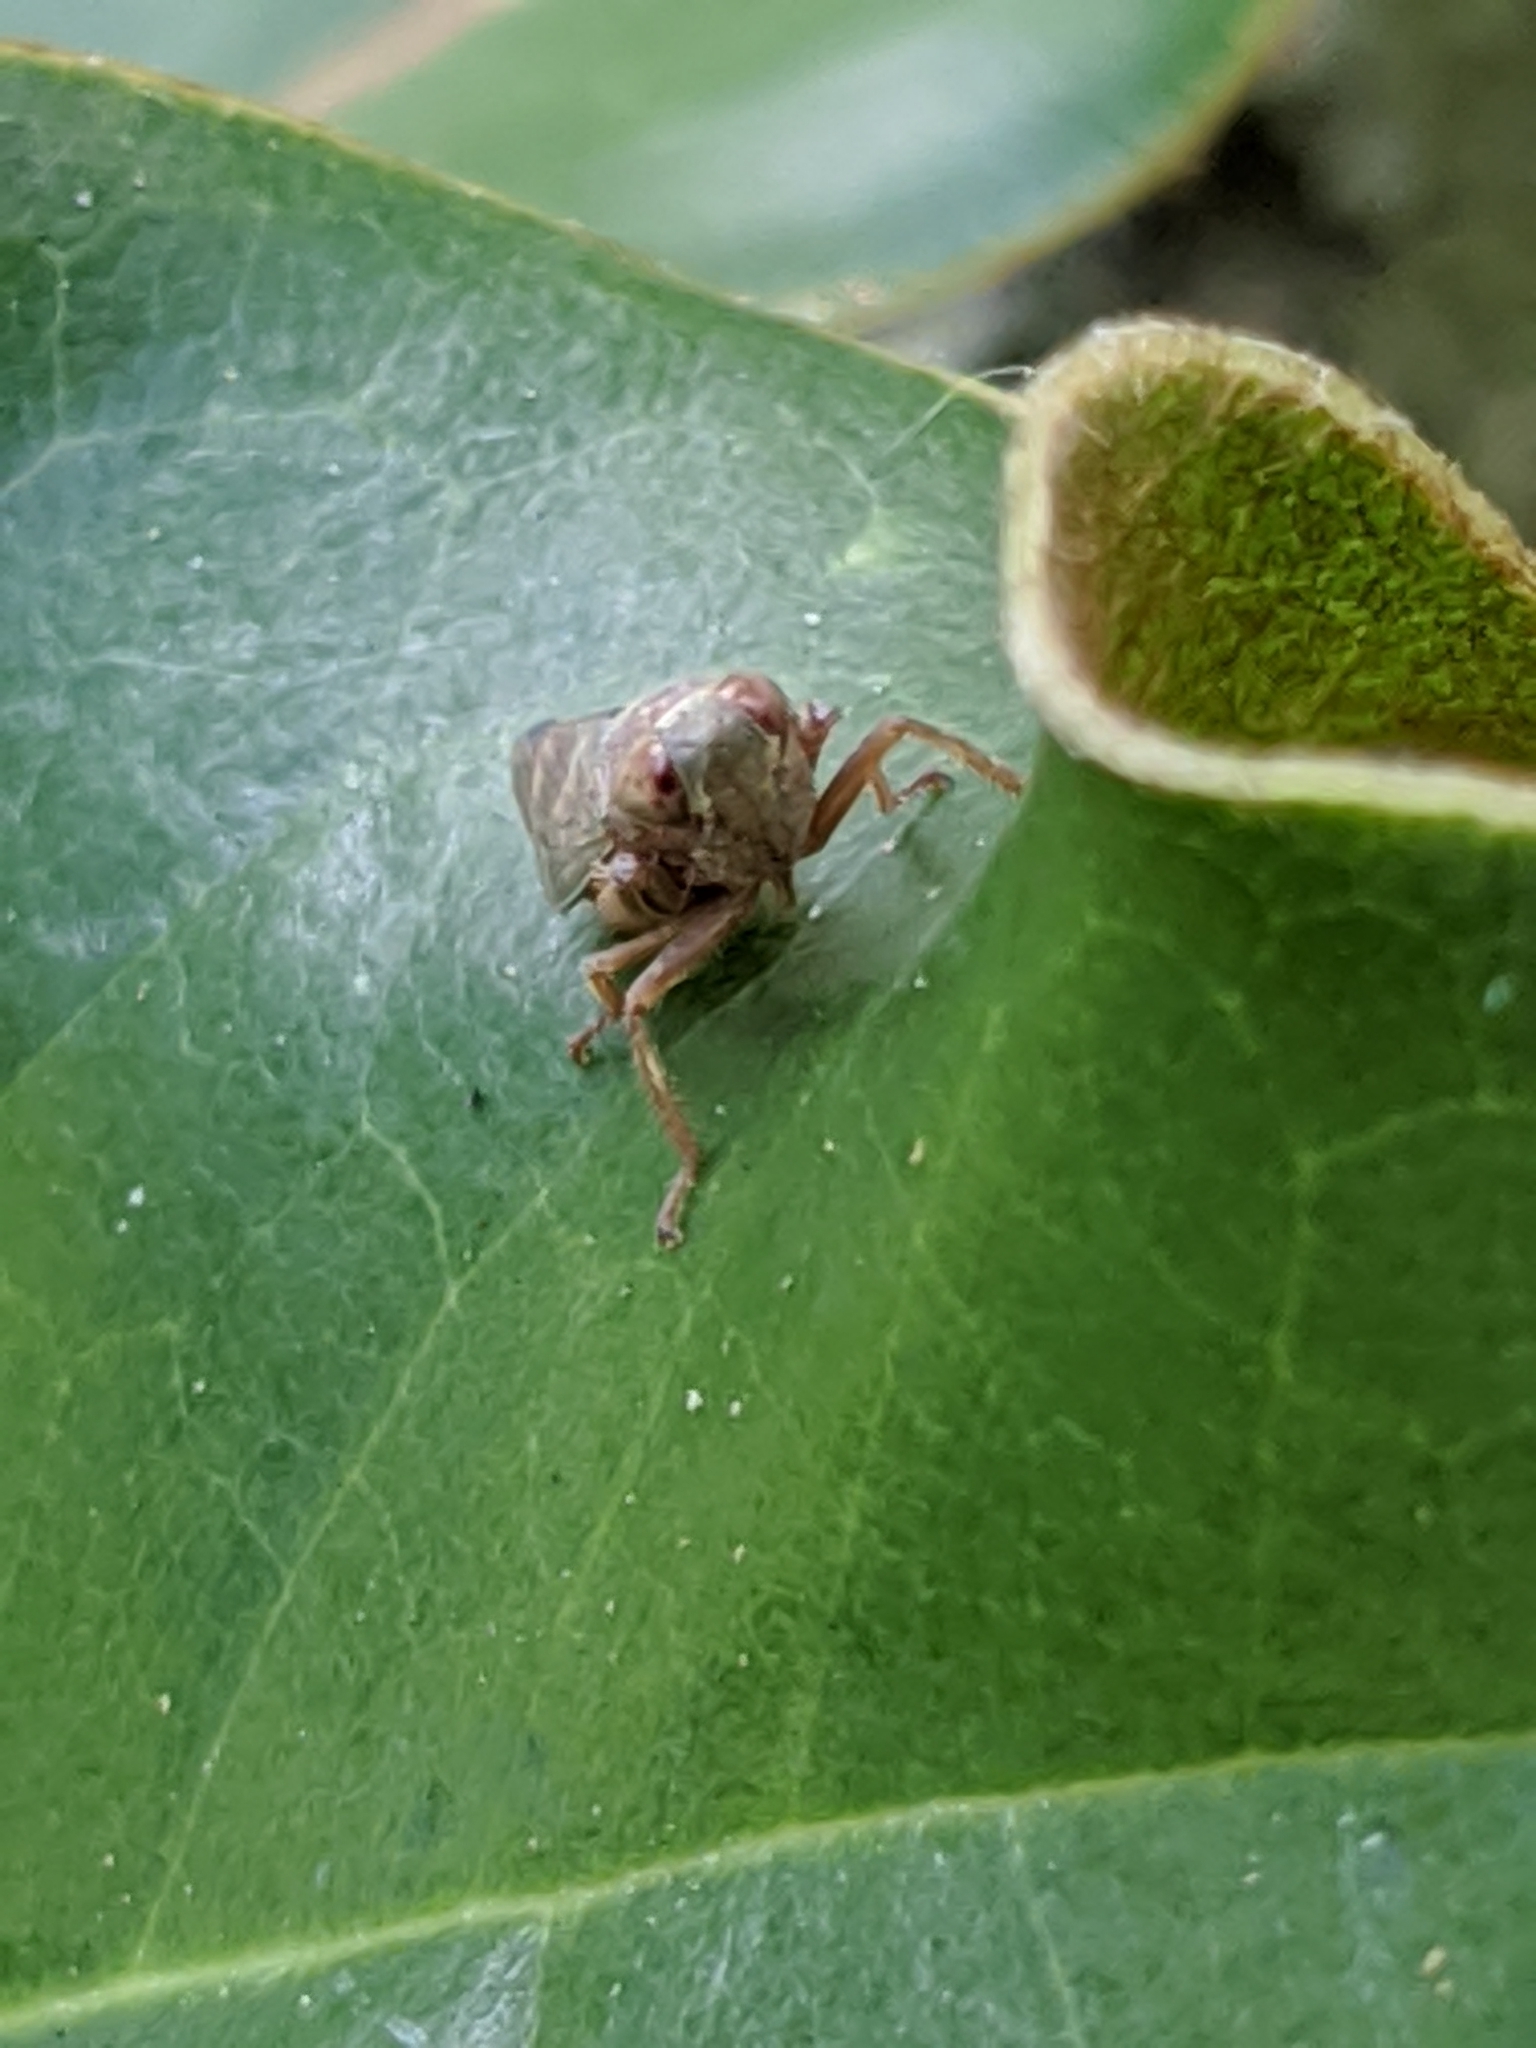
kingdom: Animalia
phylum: Arthropoda
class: Insecta
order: Hemiptera
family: Cicadellidae
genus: Jikradia
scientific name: Jikradia olitoria
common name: Coppery leafhopper
